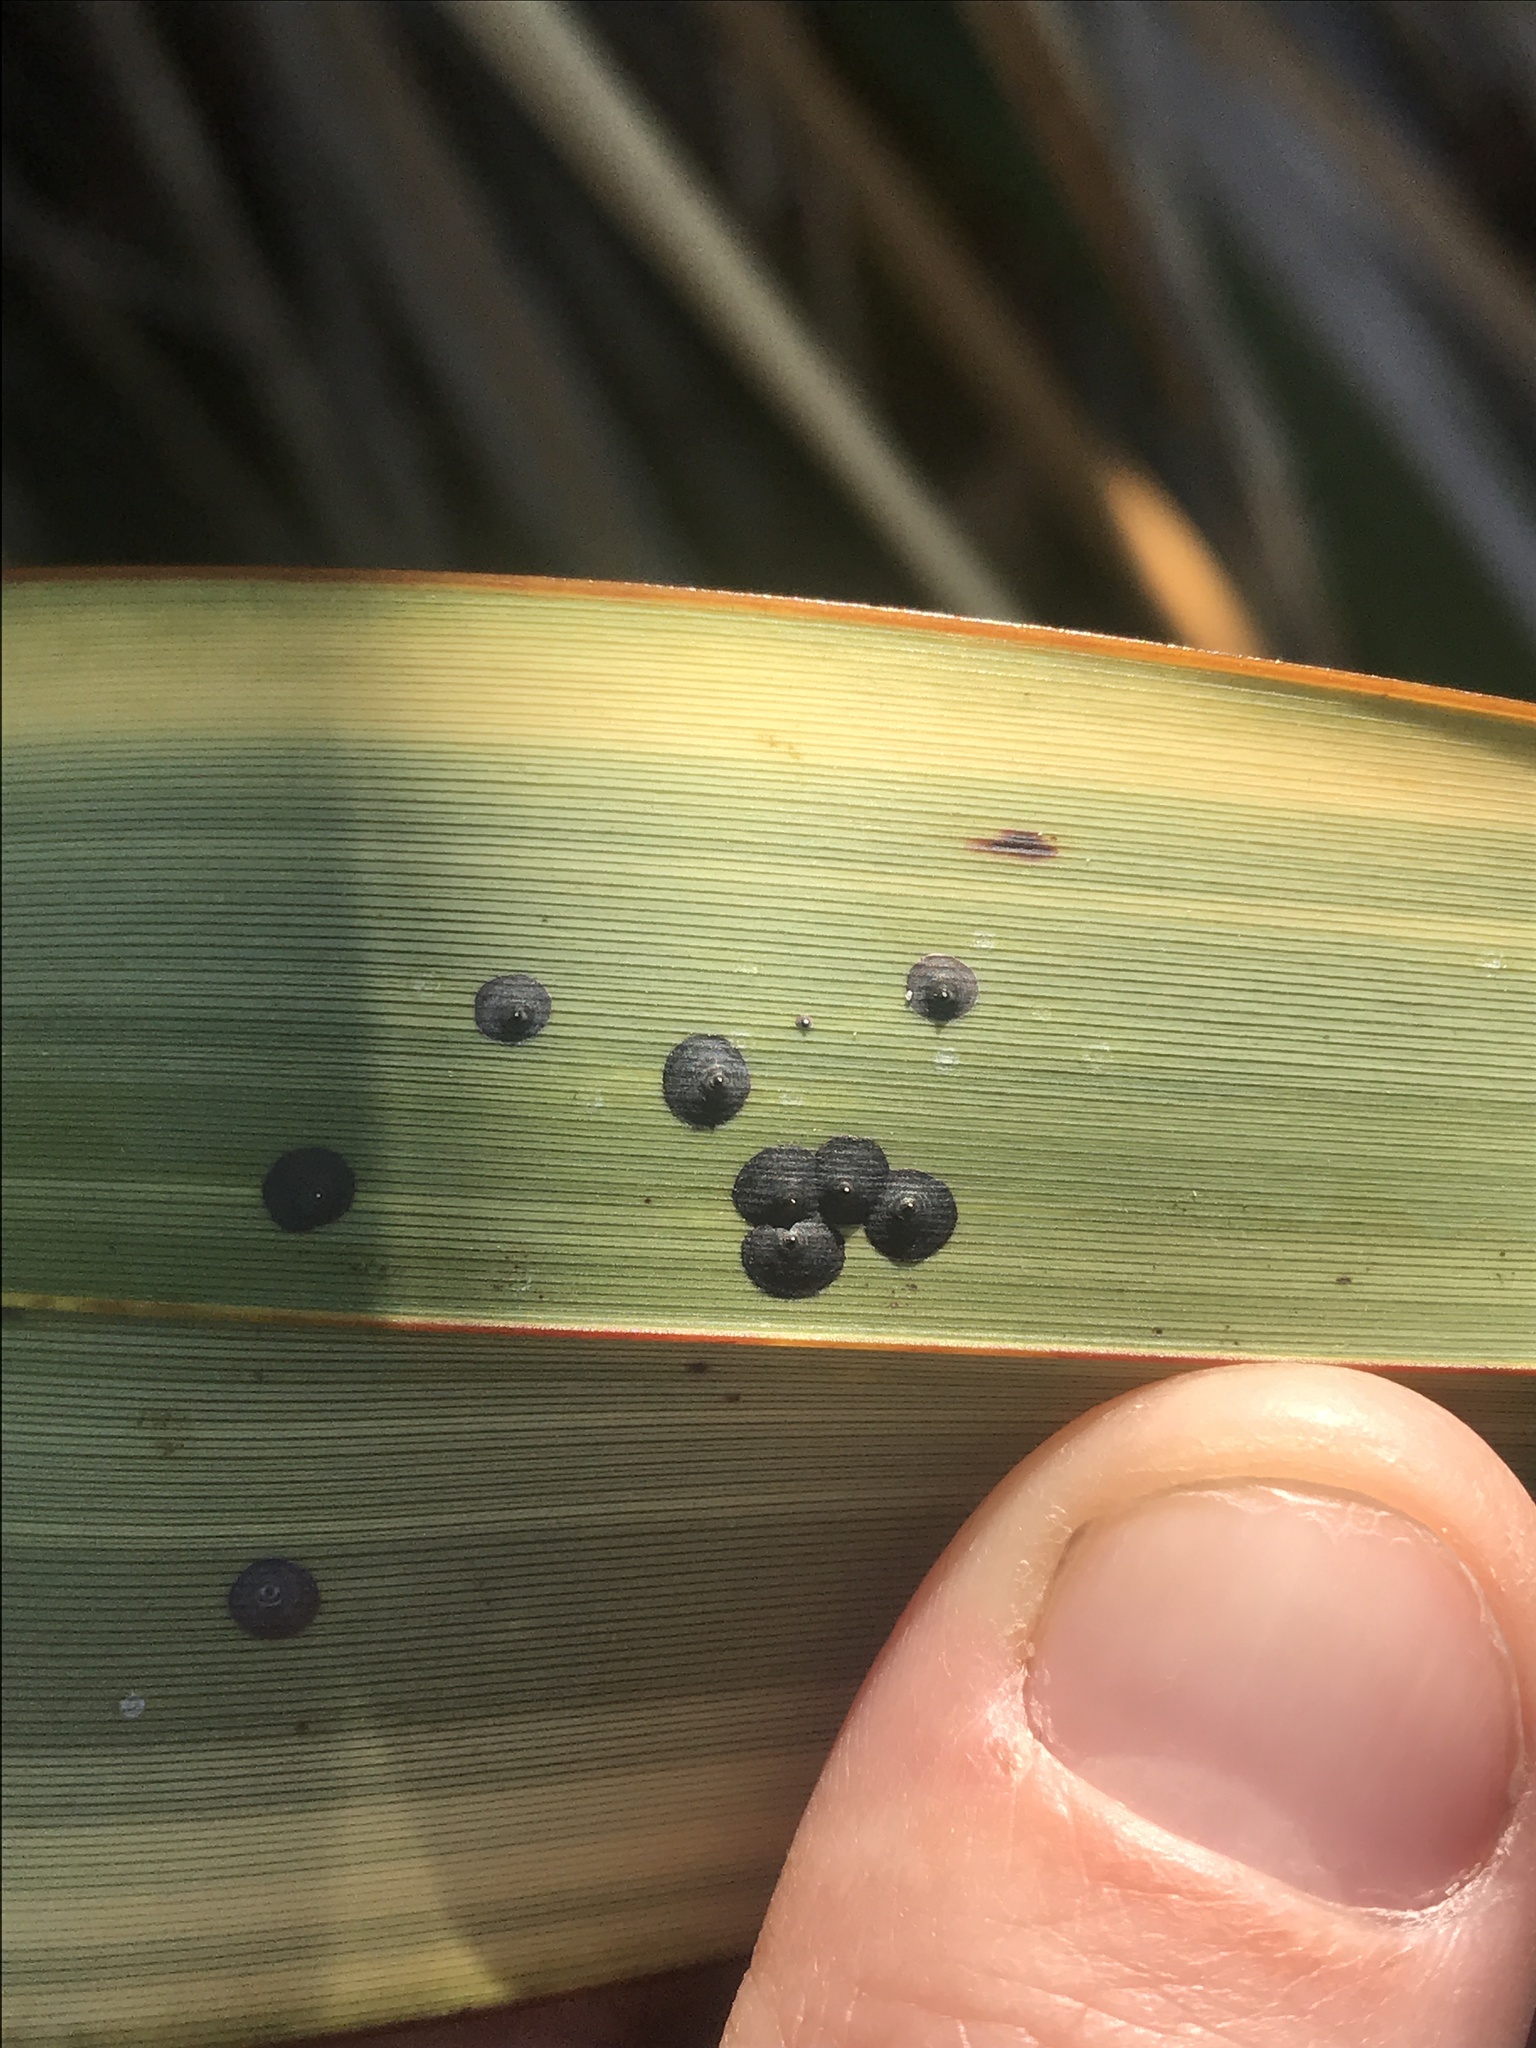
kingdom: Animalia
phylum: Arthropoda
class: Insecta
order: Hemiptera
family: Diaspididae
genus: Lindingaspis
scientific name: Lindingaspis rossi
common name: Araucaria black scale
